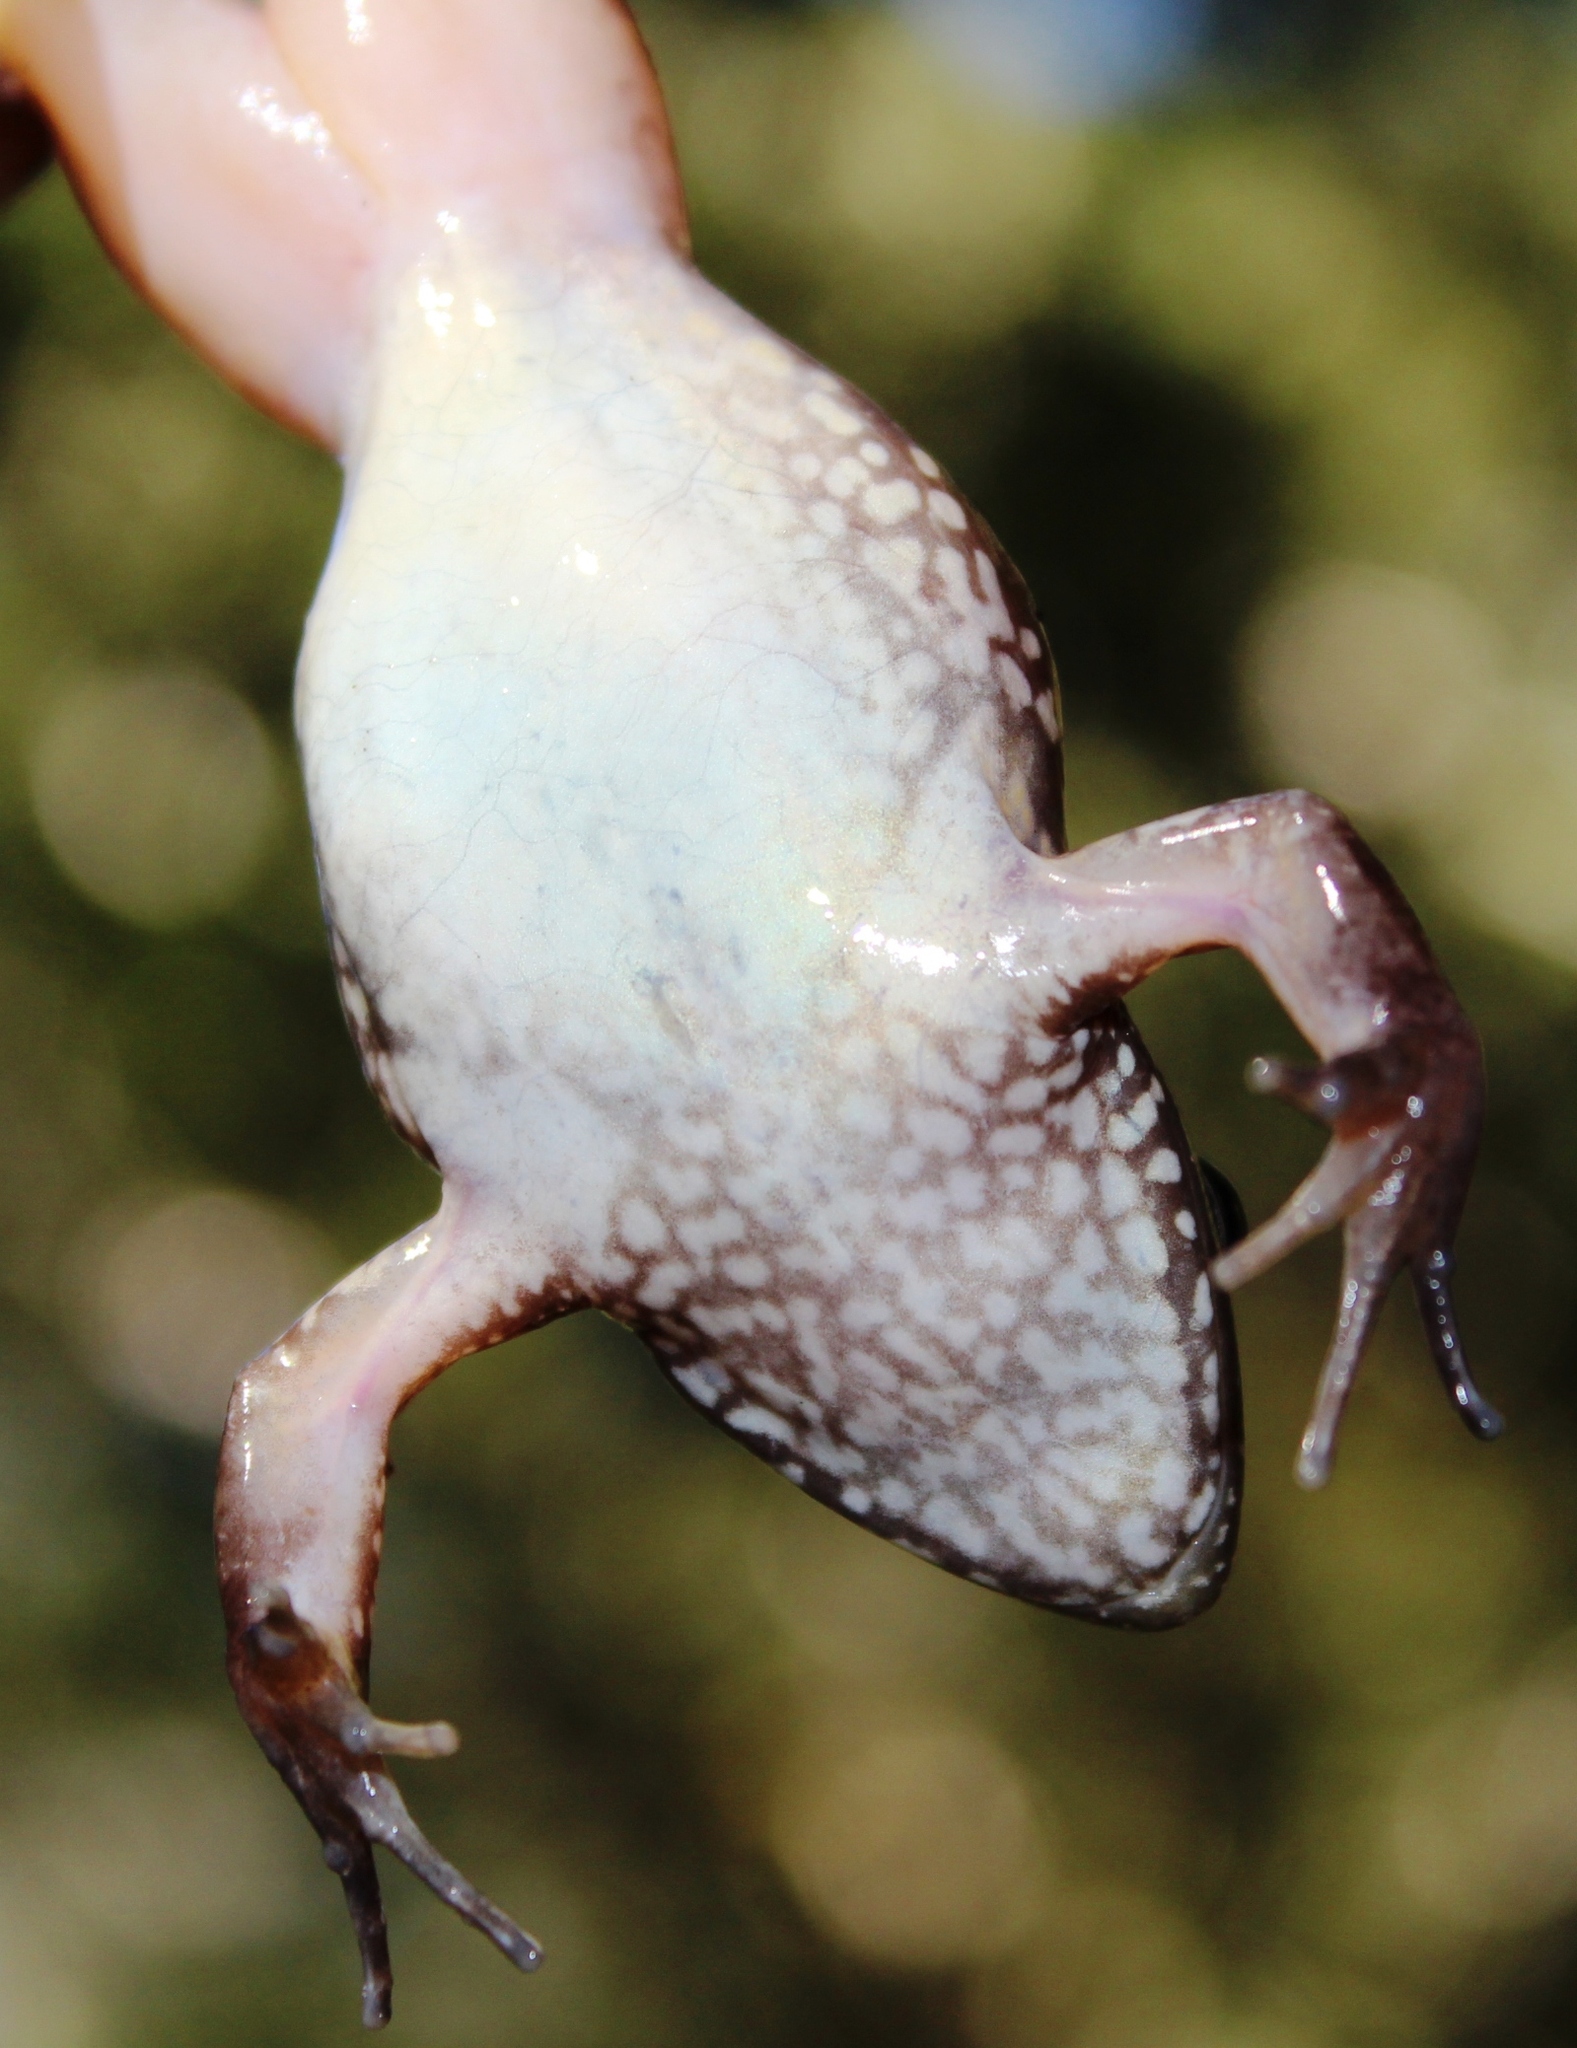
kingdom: Animalia
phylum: Chordata
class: Amphibia
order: Anura
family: Pyxicephalidae
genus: Amietia
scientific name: Amietia fuscigula
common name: Cape rana
